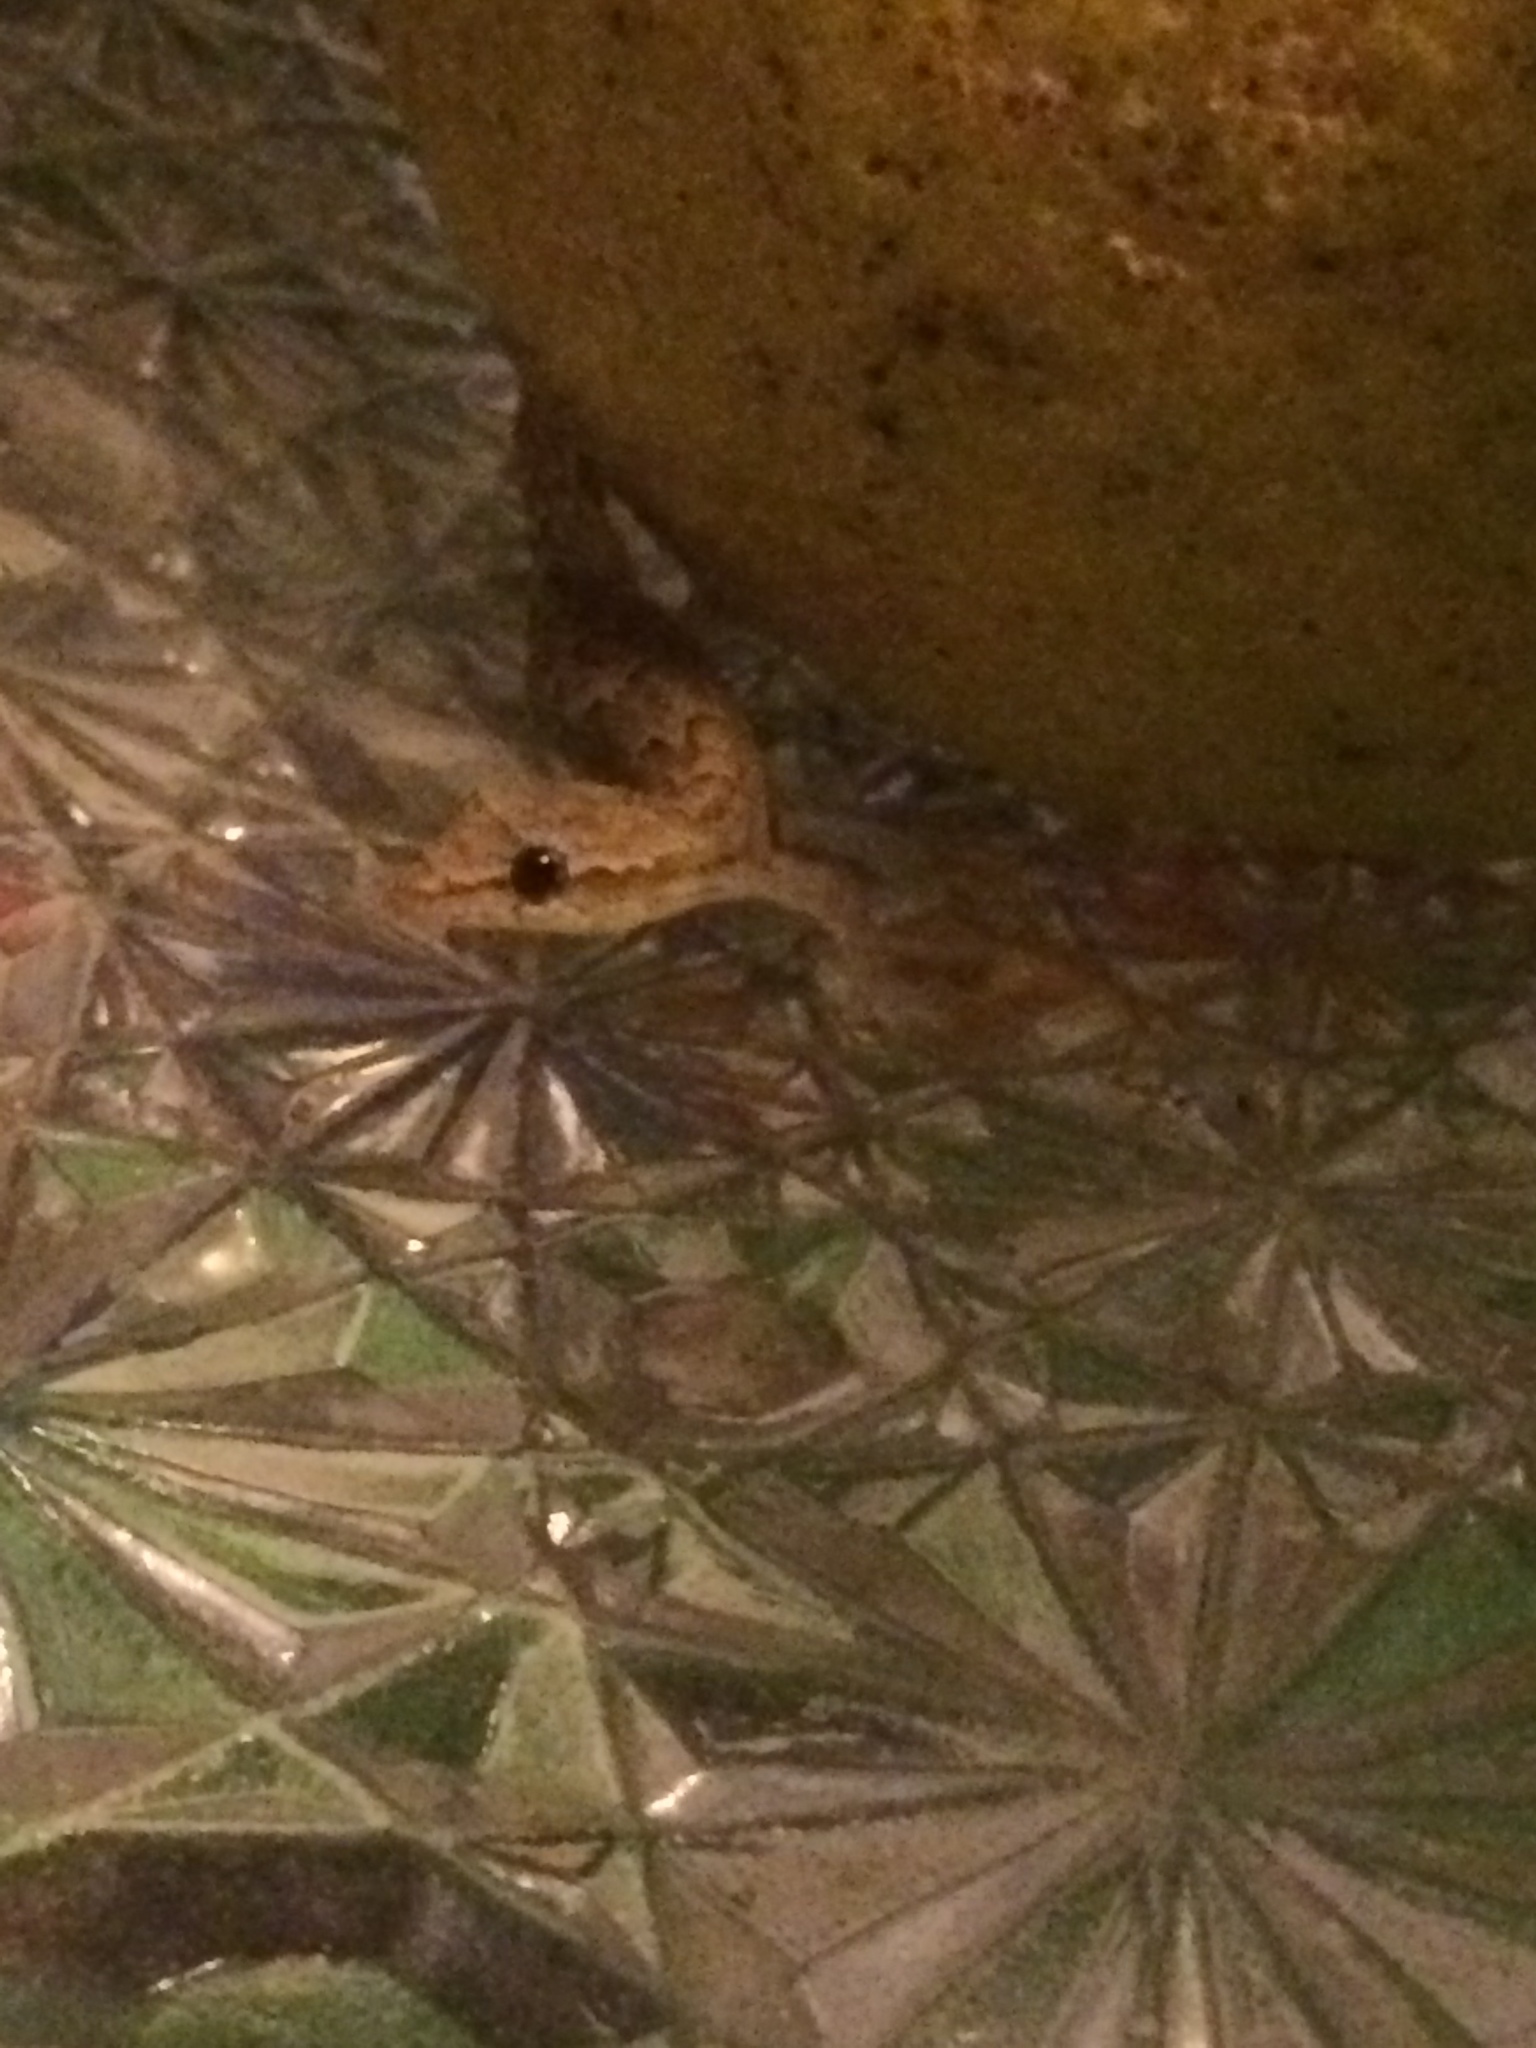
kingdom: Animalia
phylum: Chordata
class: Squamata
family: Gekkonidae
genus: Lepidodactylus
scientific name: Lepidodactylus lugubris
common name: Mourning gecko
